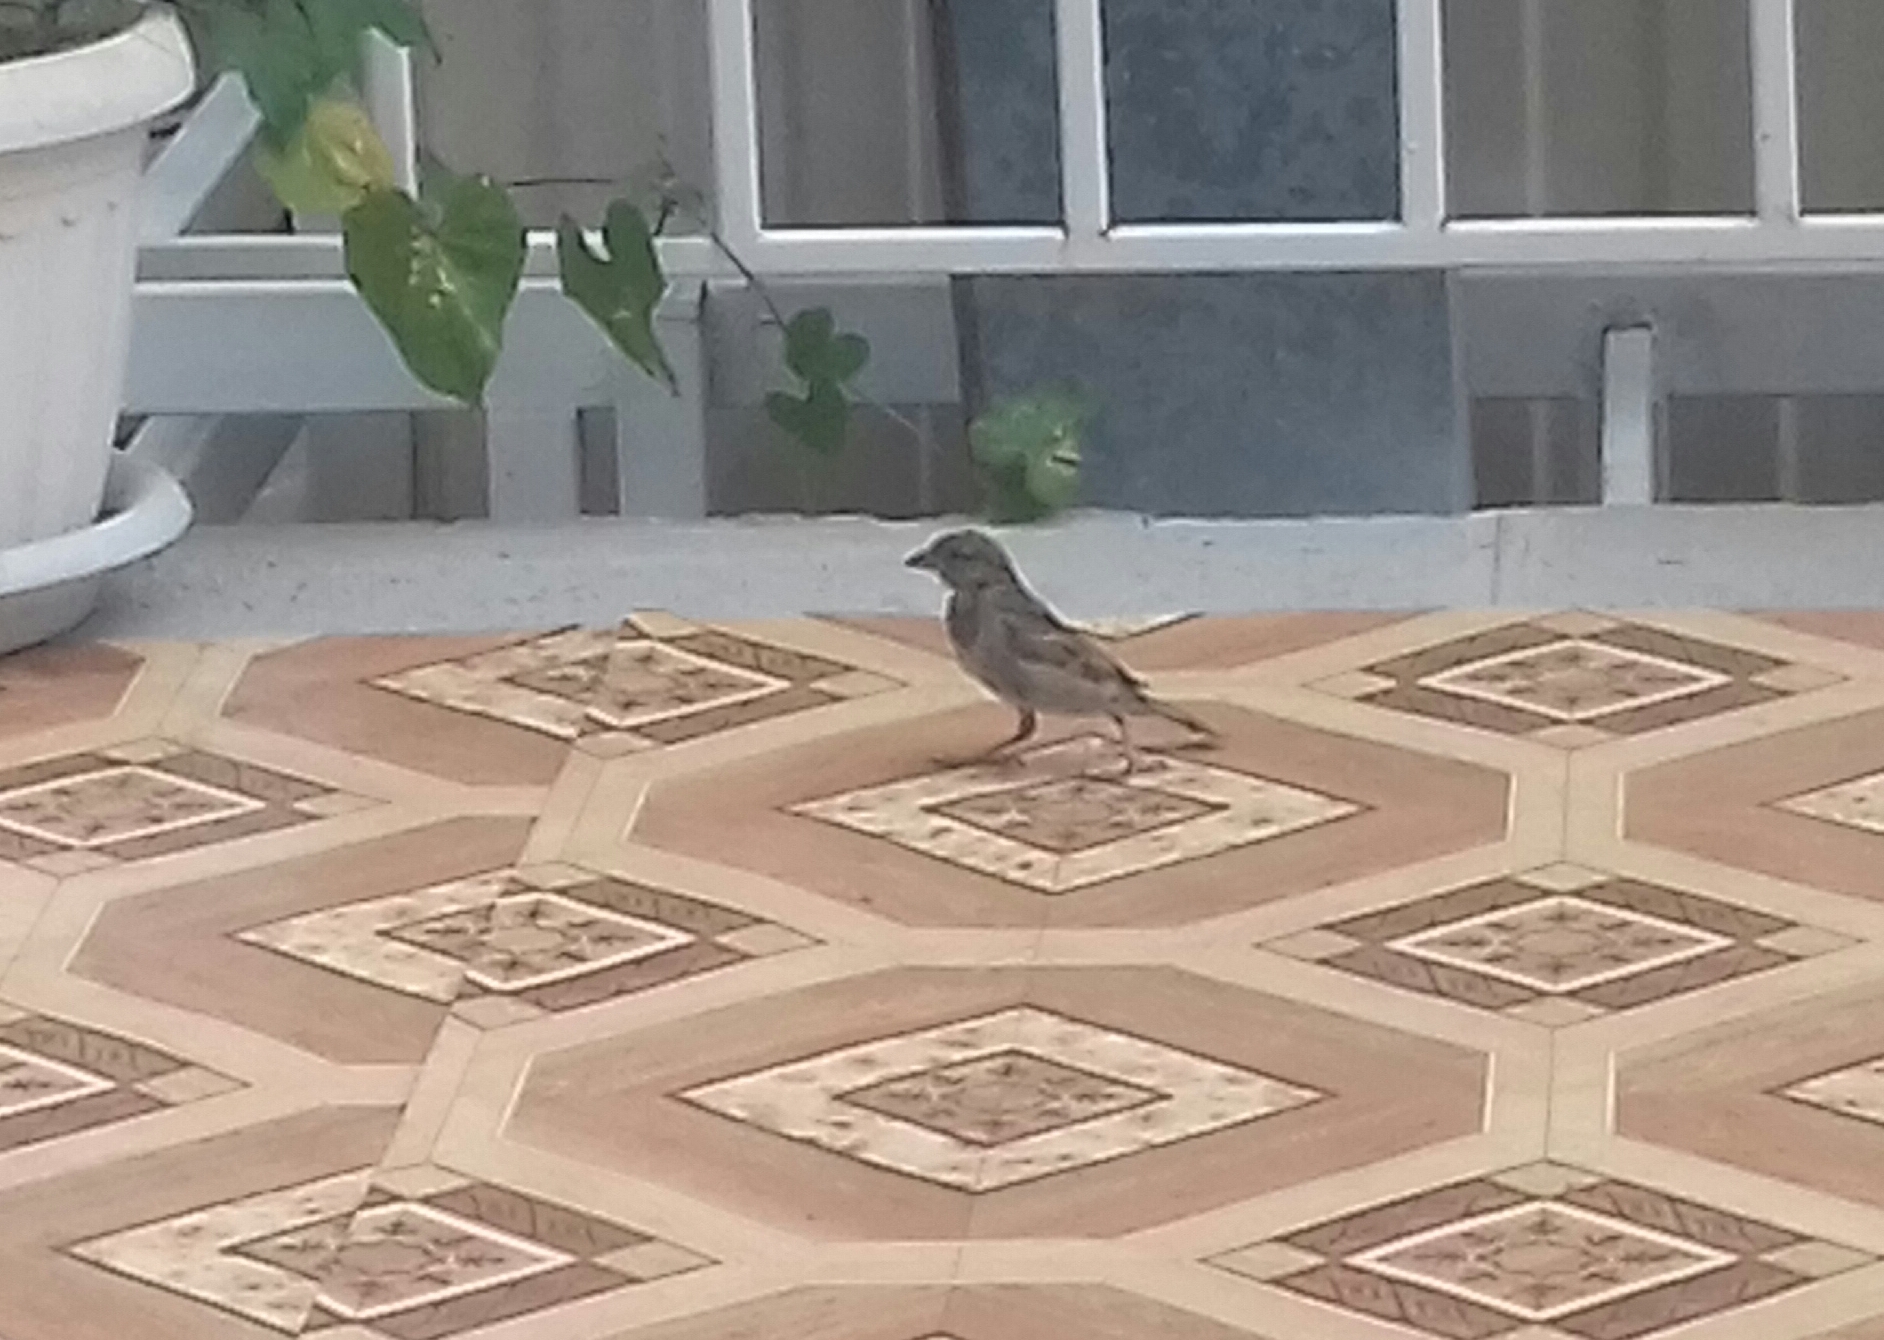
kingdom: Animalia
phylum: Chordata
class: Aves
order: Passeriformes
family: Passeridae
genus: Passer
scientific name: Passer domesticus
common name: House sparrow
